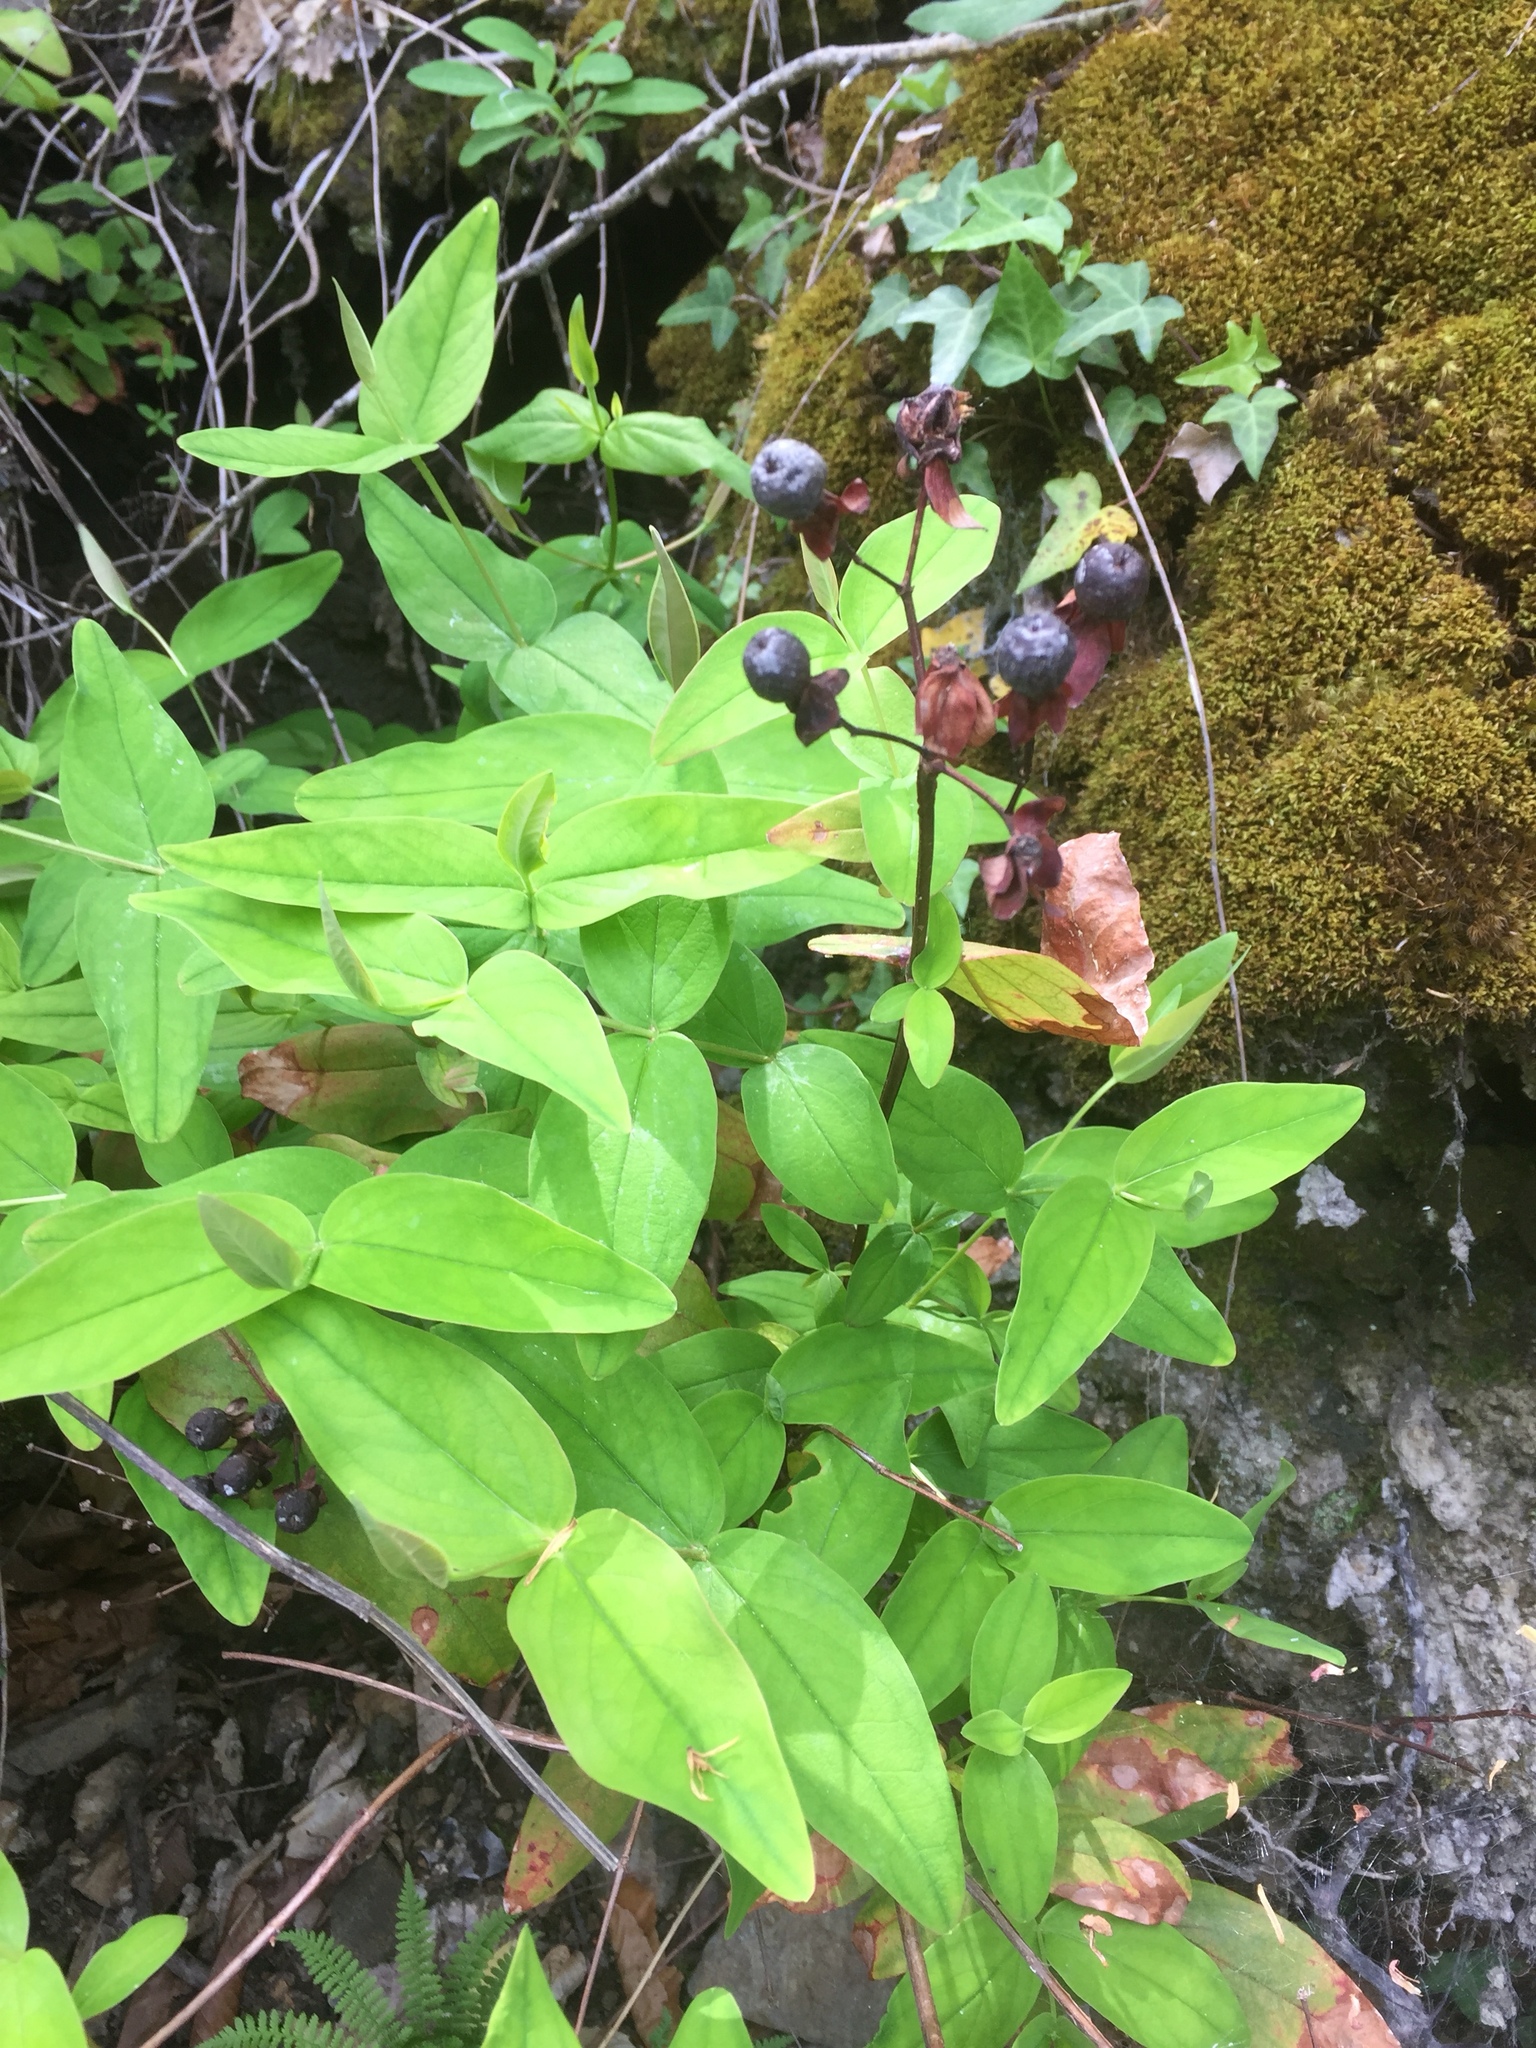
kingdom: Plantae
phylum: Tracheophyta
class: Magnoliopsida
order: Malpighiales
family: Hypericaceae
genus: Hypericum
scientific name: Hypericum androsaemum
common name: Sweet-amber
